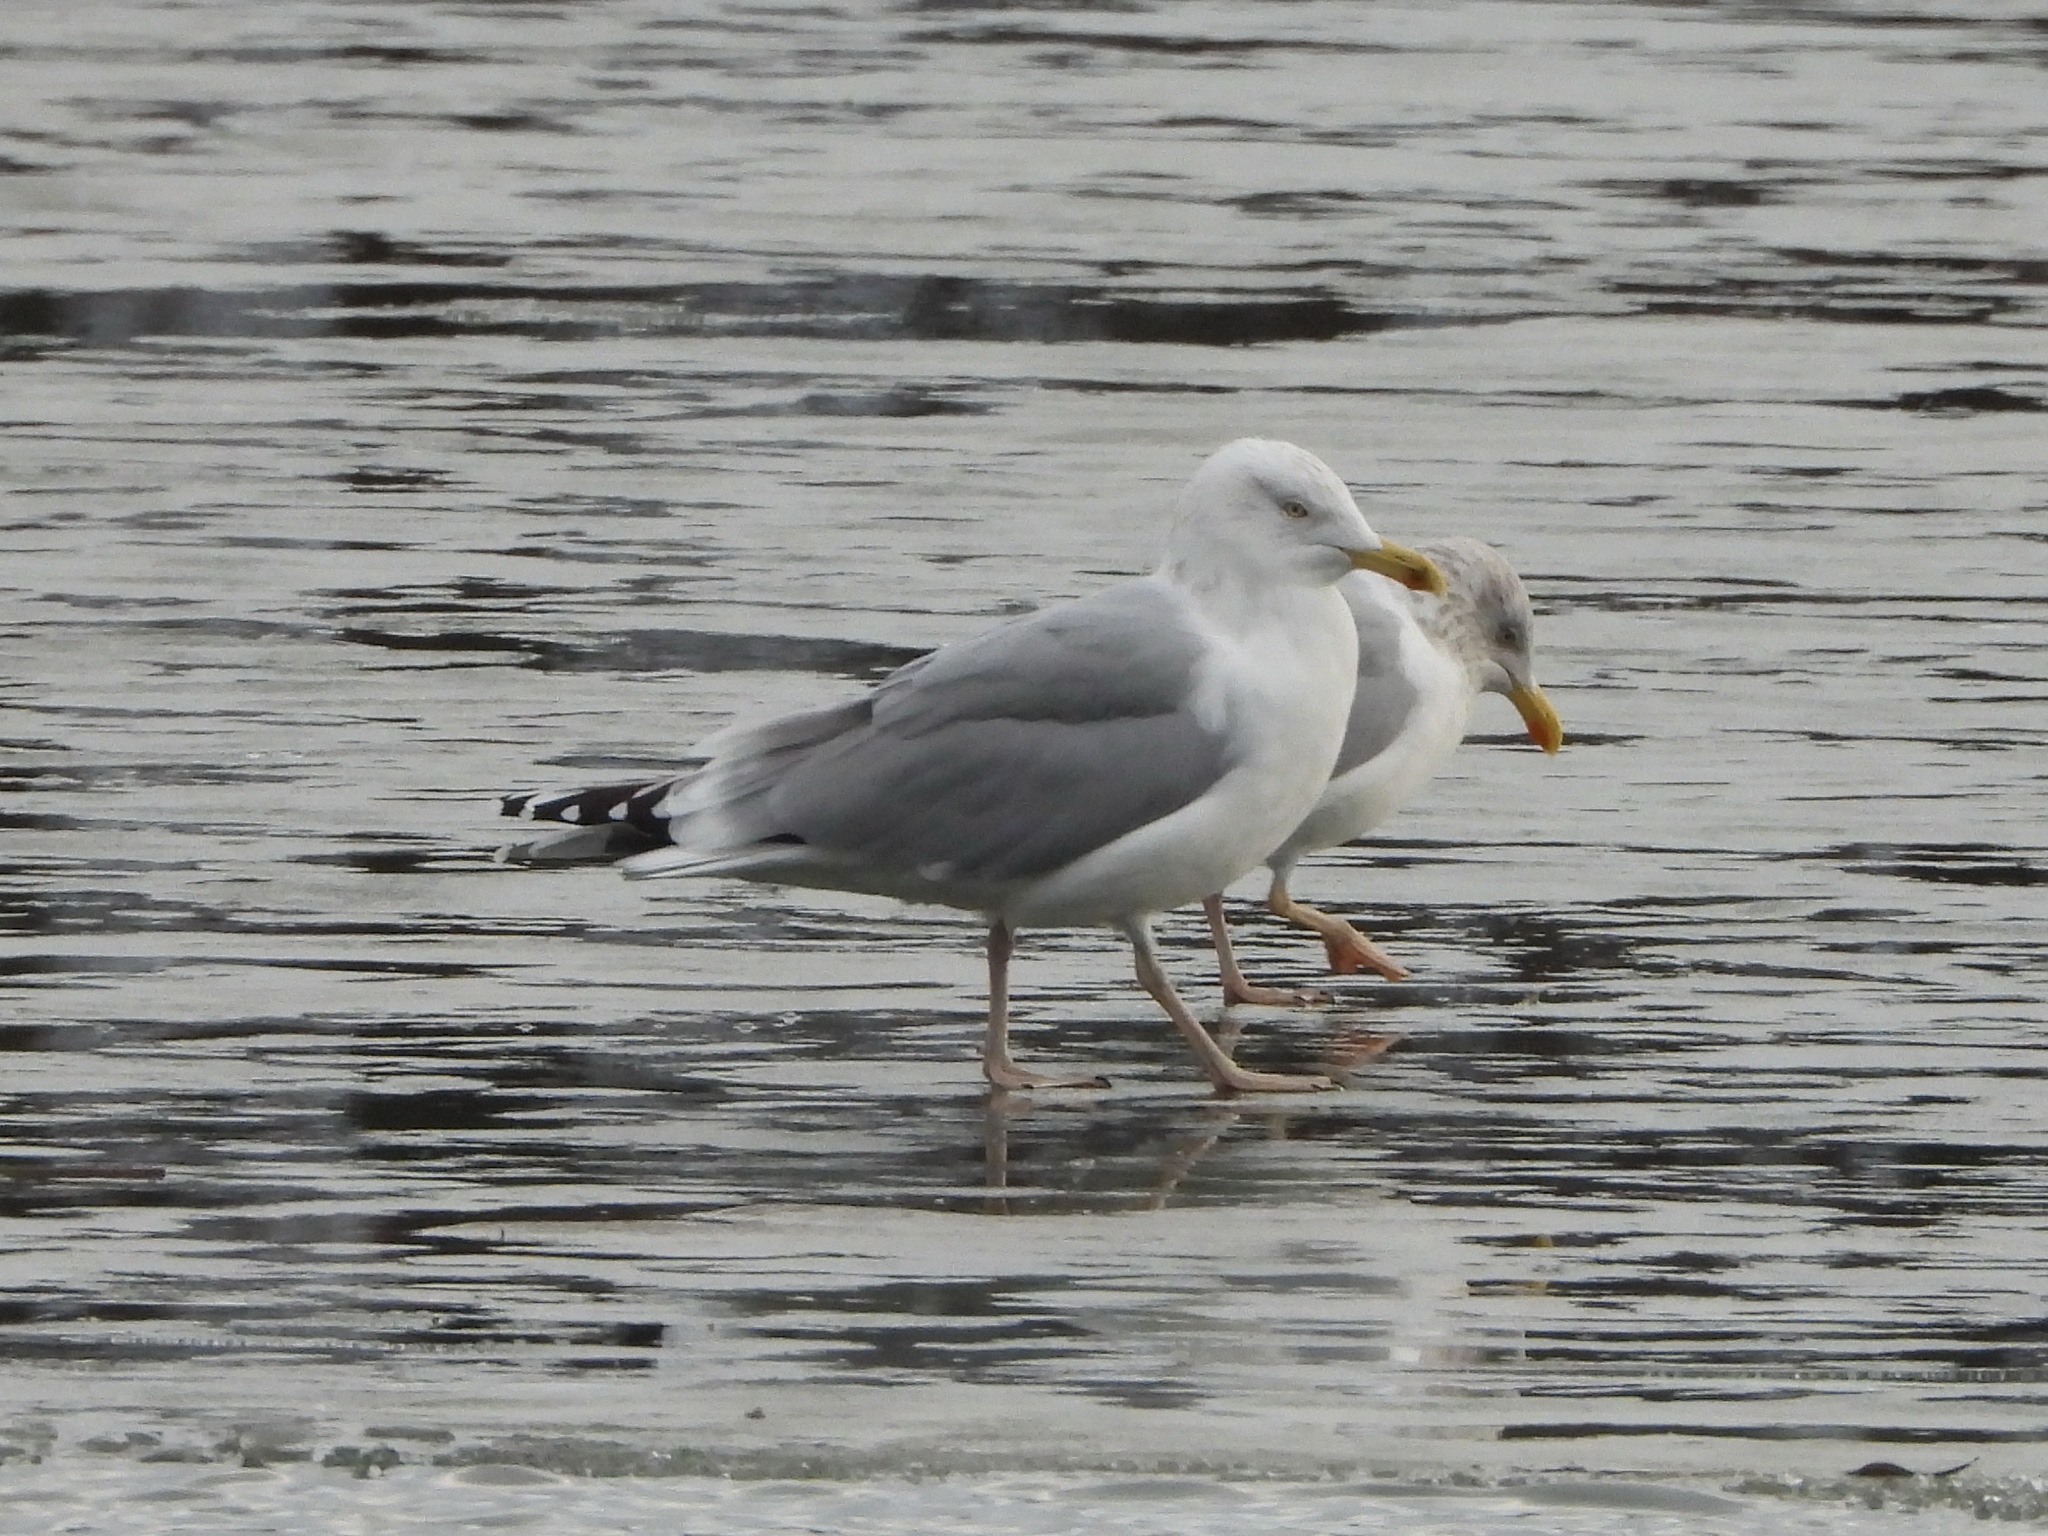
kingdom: Animalia
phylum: Chordata
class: Aves
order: Charadriiformes
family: Laridae
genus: Larus
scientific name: Larus argentatus
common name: Herring gull
